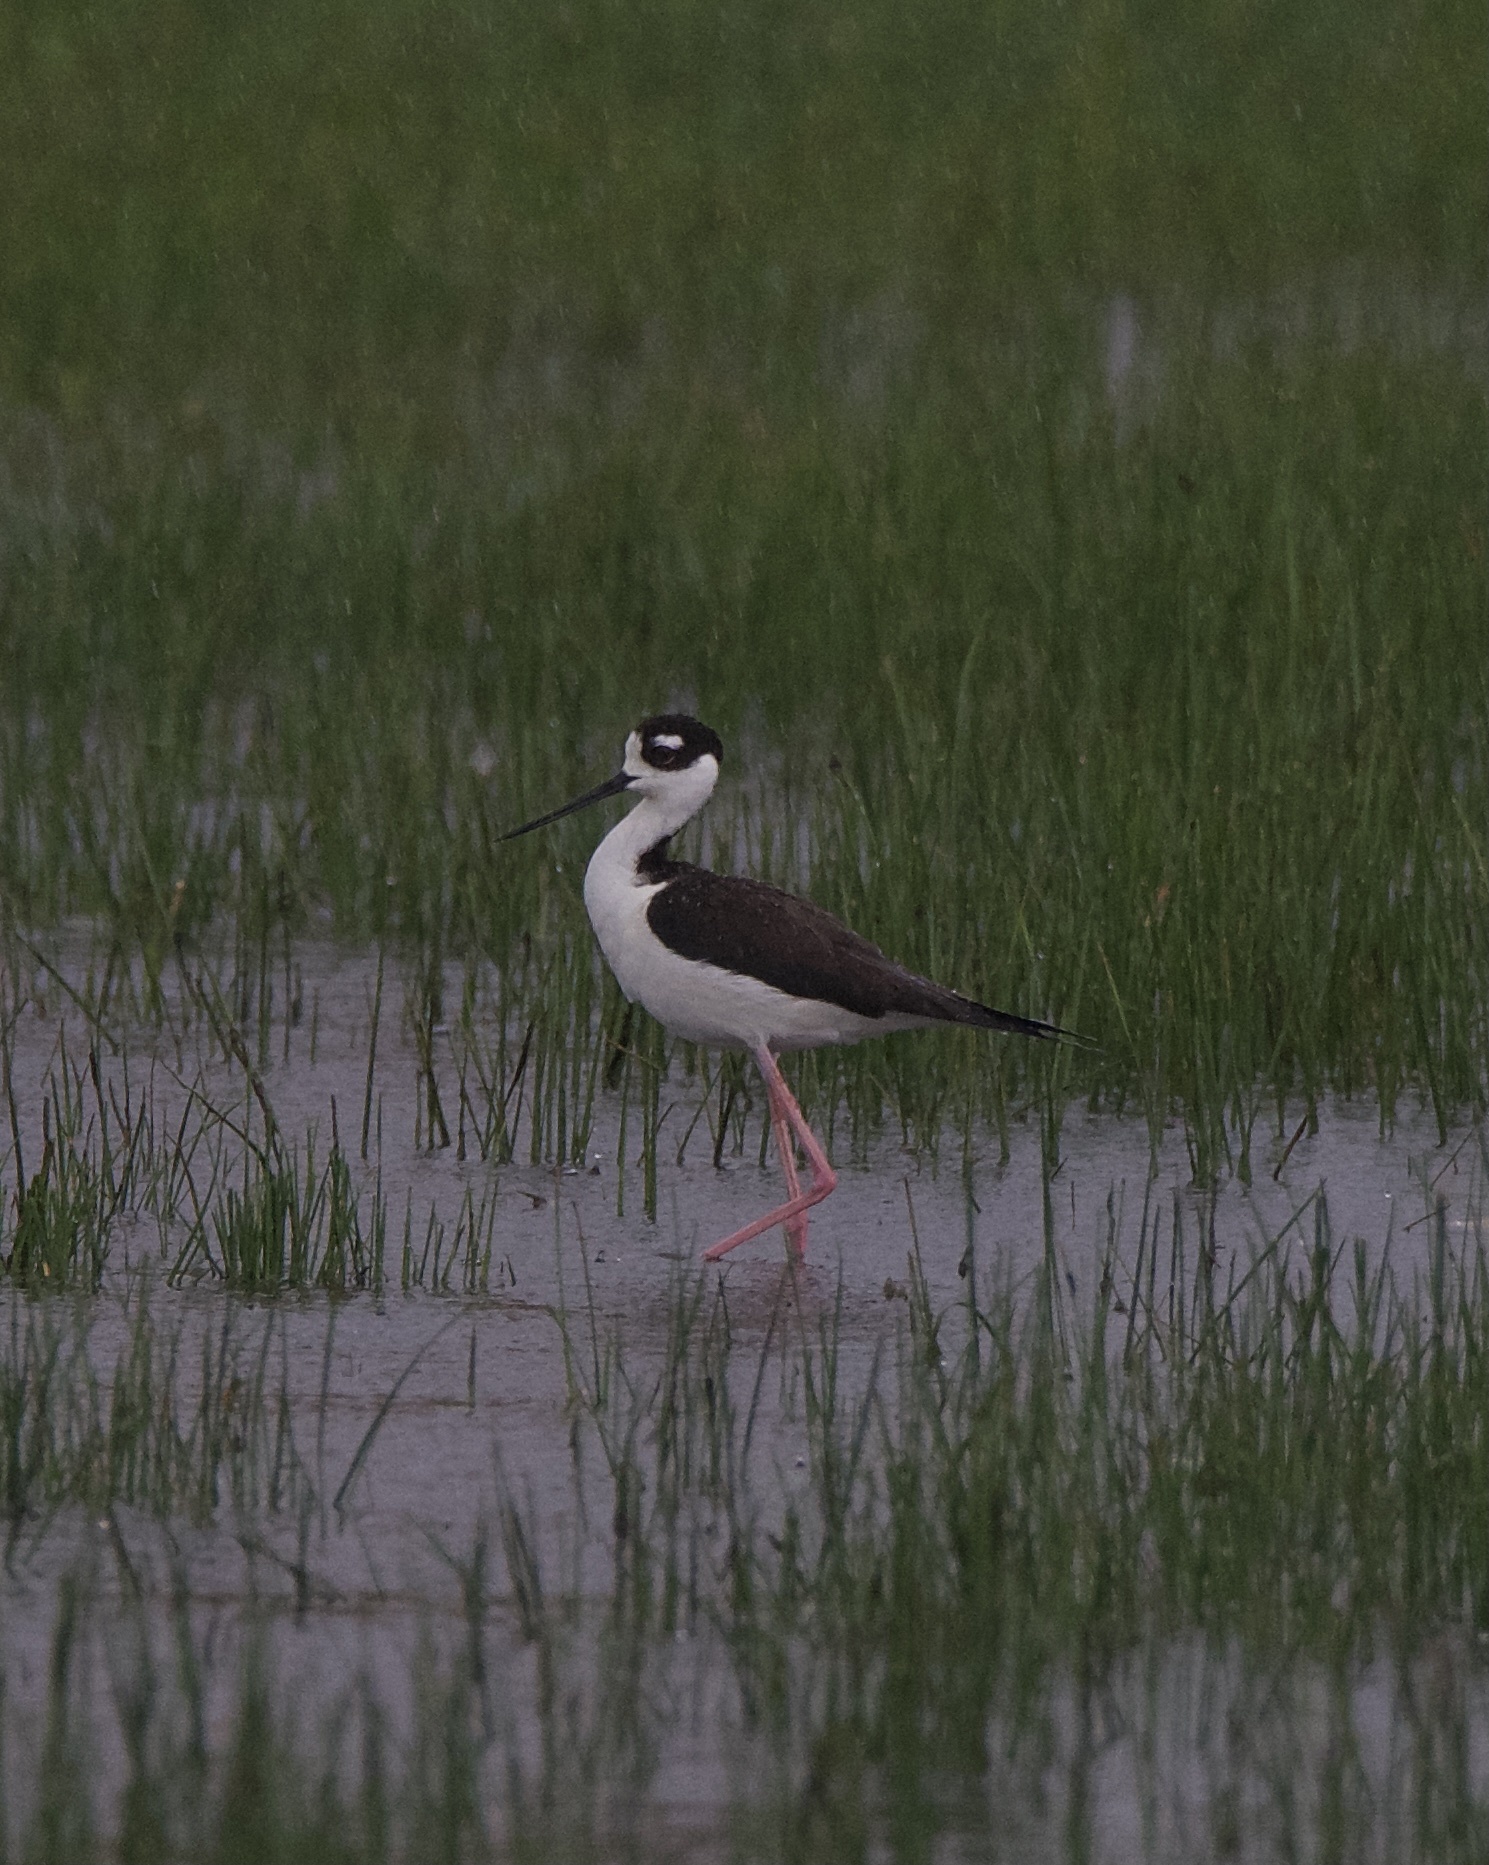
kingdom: Animalia
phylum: Chordata
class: Aves
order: Charadriiformes
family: Recurvirostridae
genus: Himantopus
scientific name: Himantopus mexicanus
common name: Black-necked stilt
